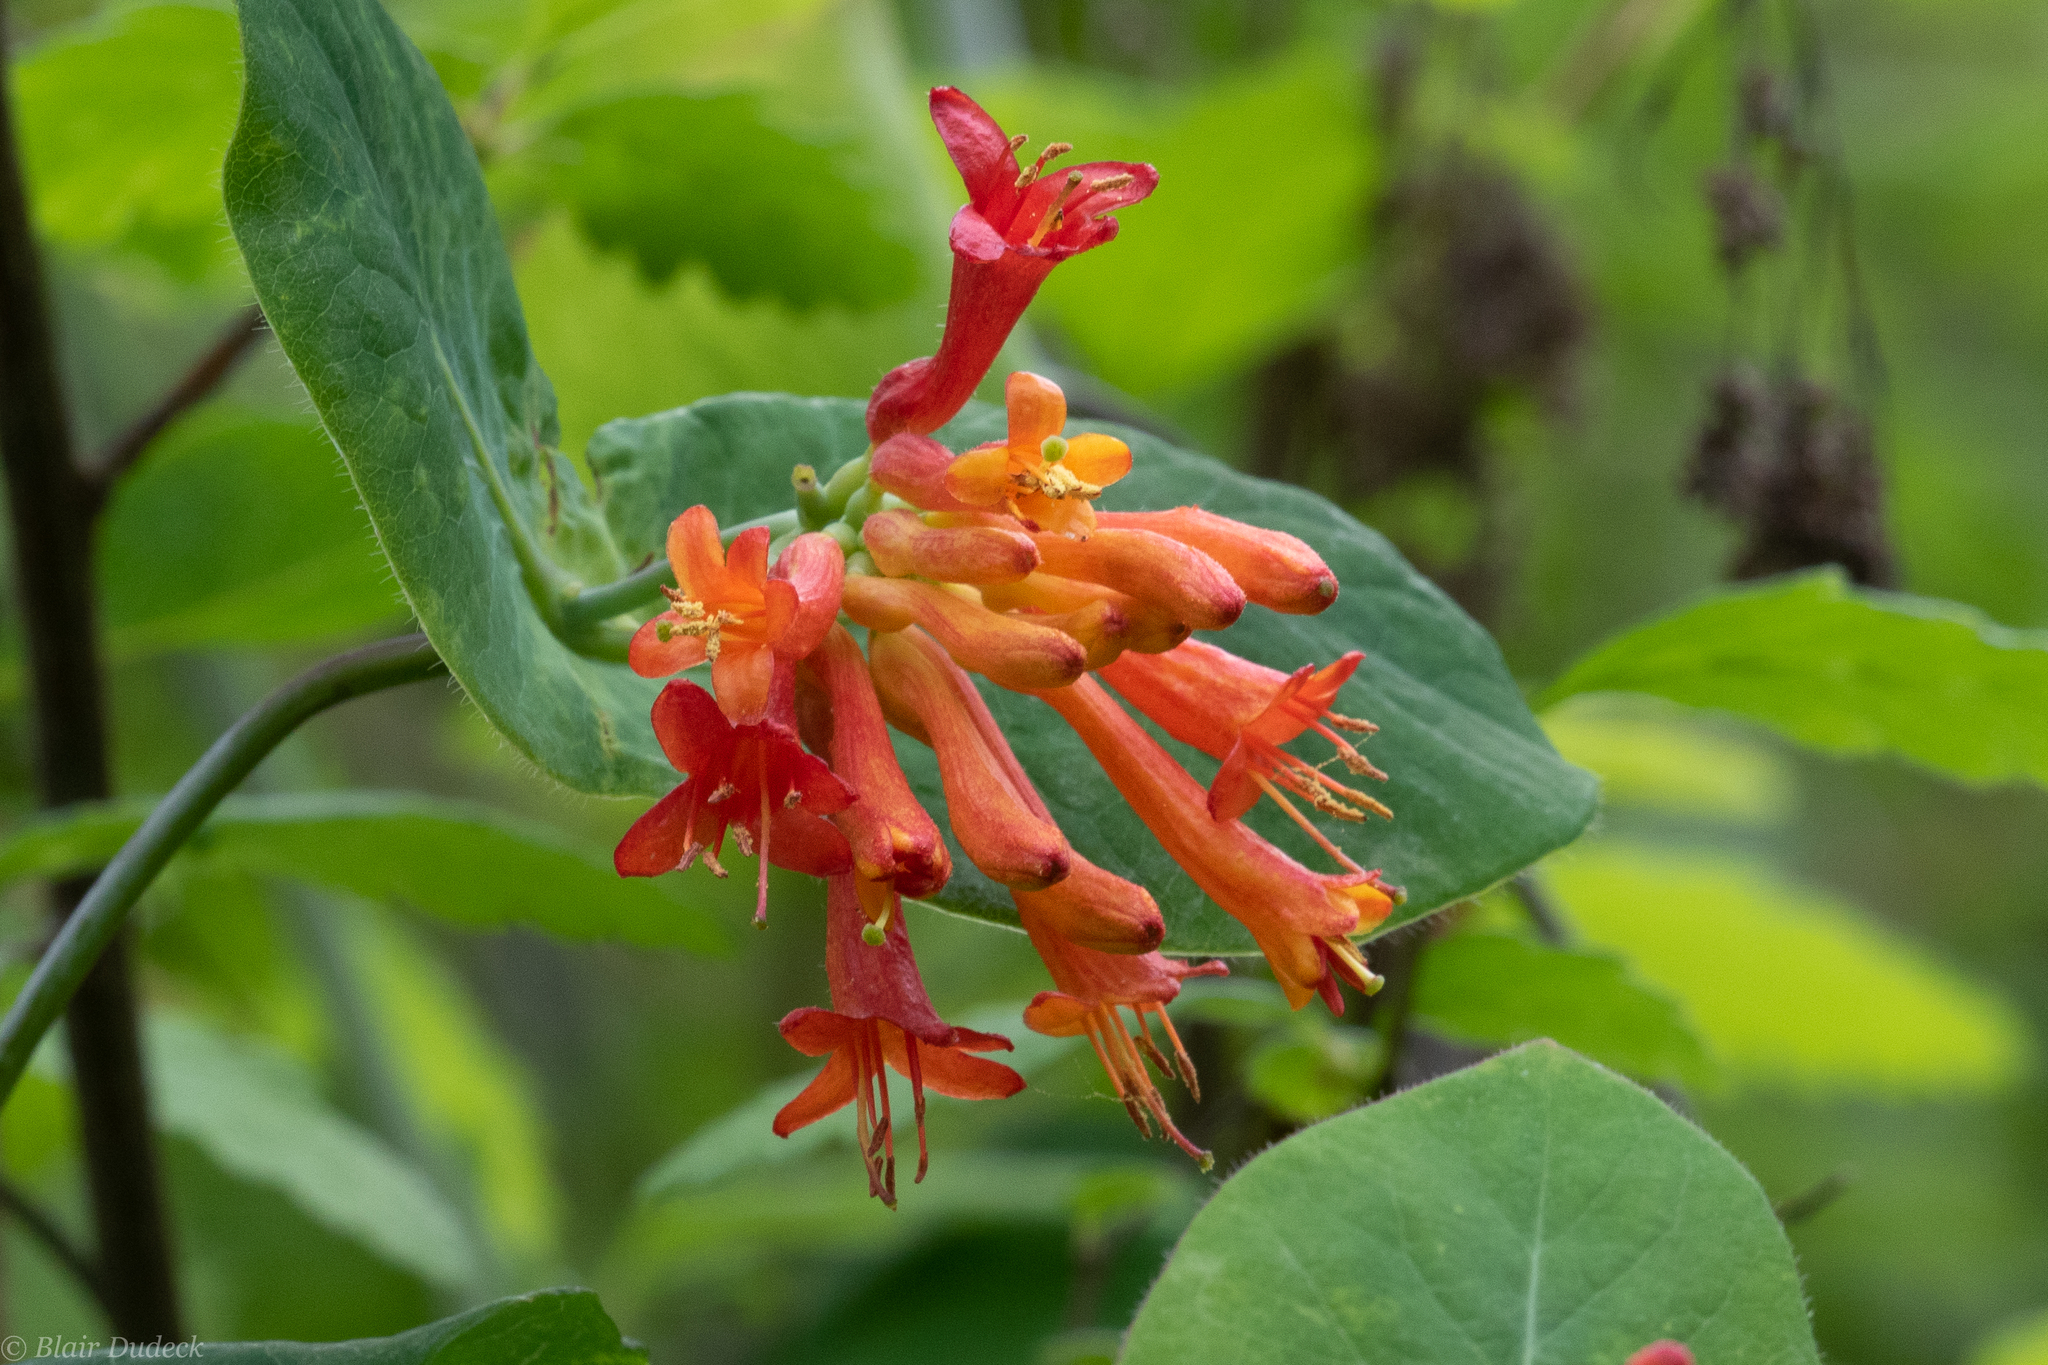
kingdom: Plantae
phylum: Tracheophyta
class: Magnoliopsida
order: Dipsacales
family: Caprifoliaceae
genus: Lonicera
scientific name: Lonicera ciliosa
